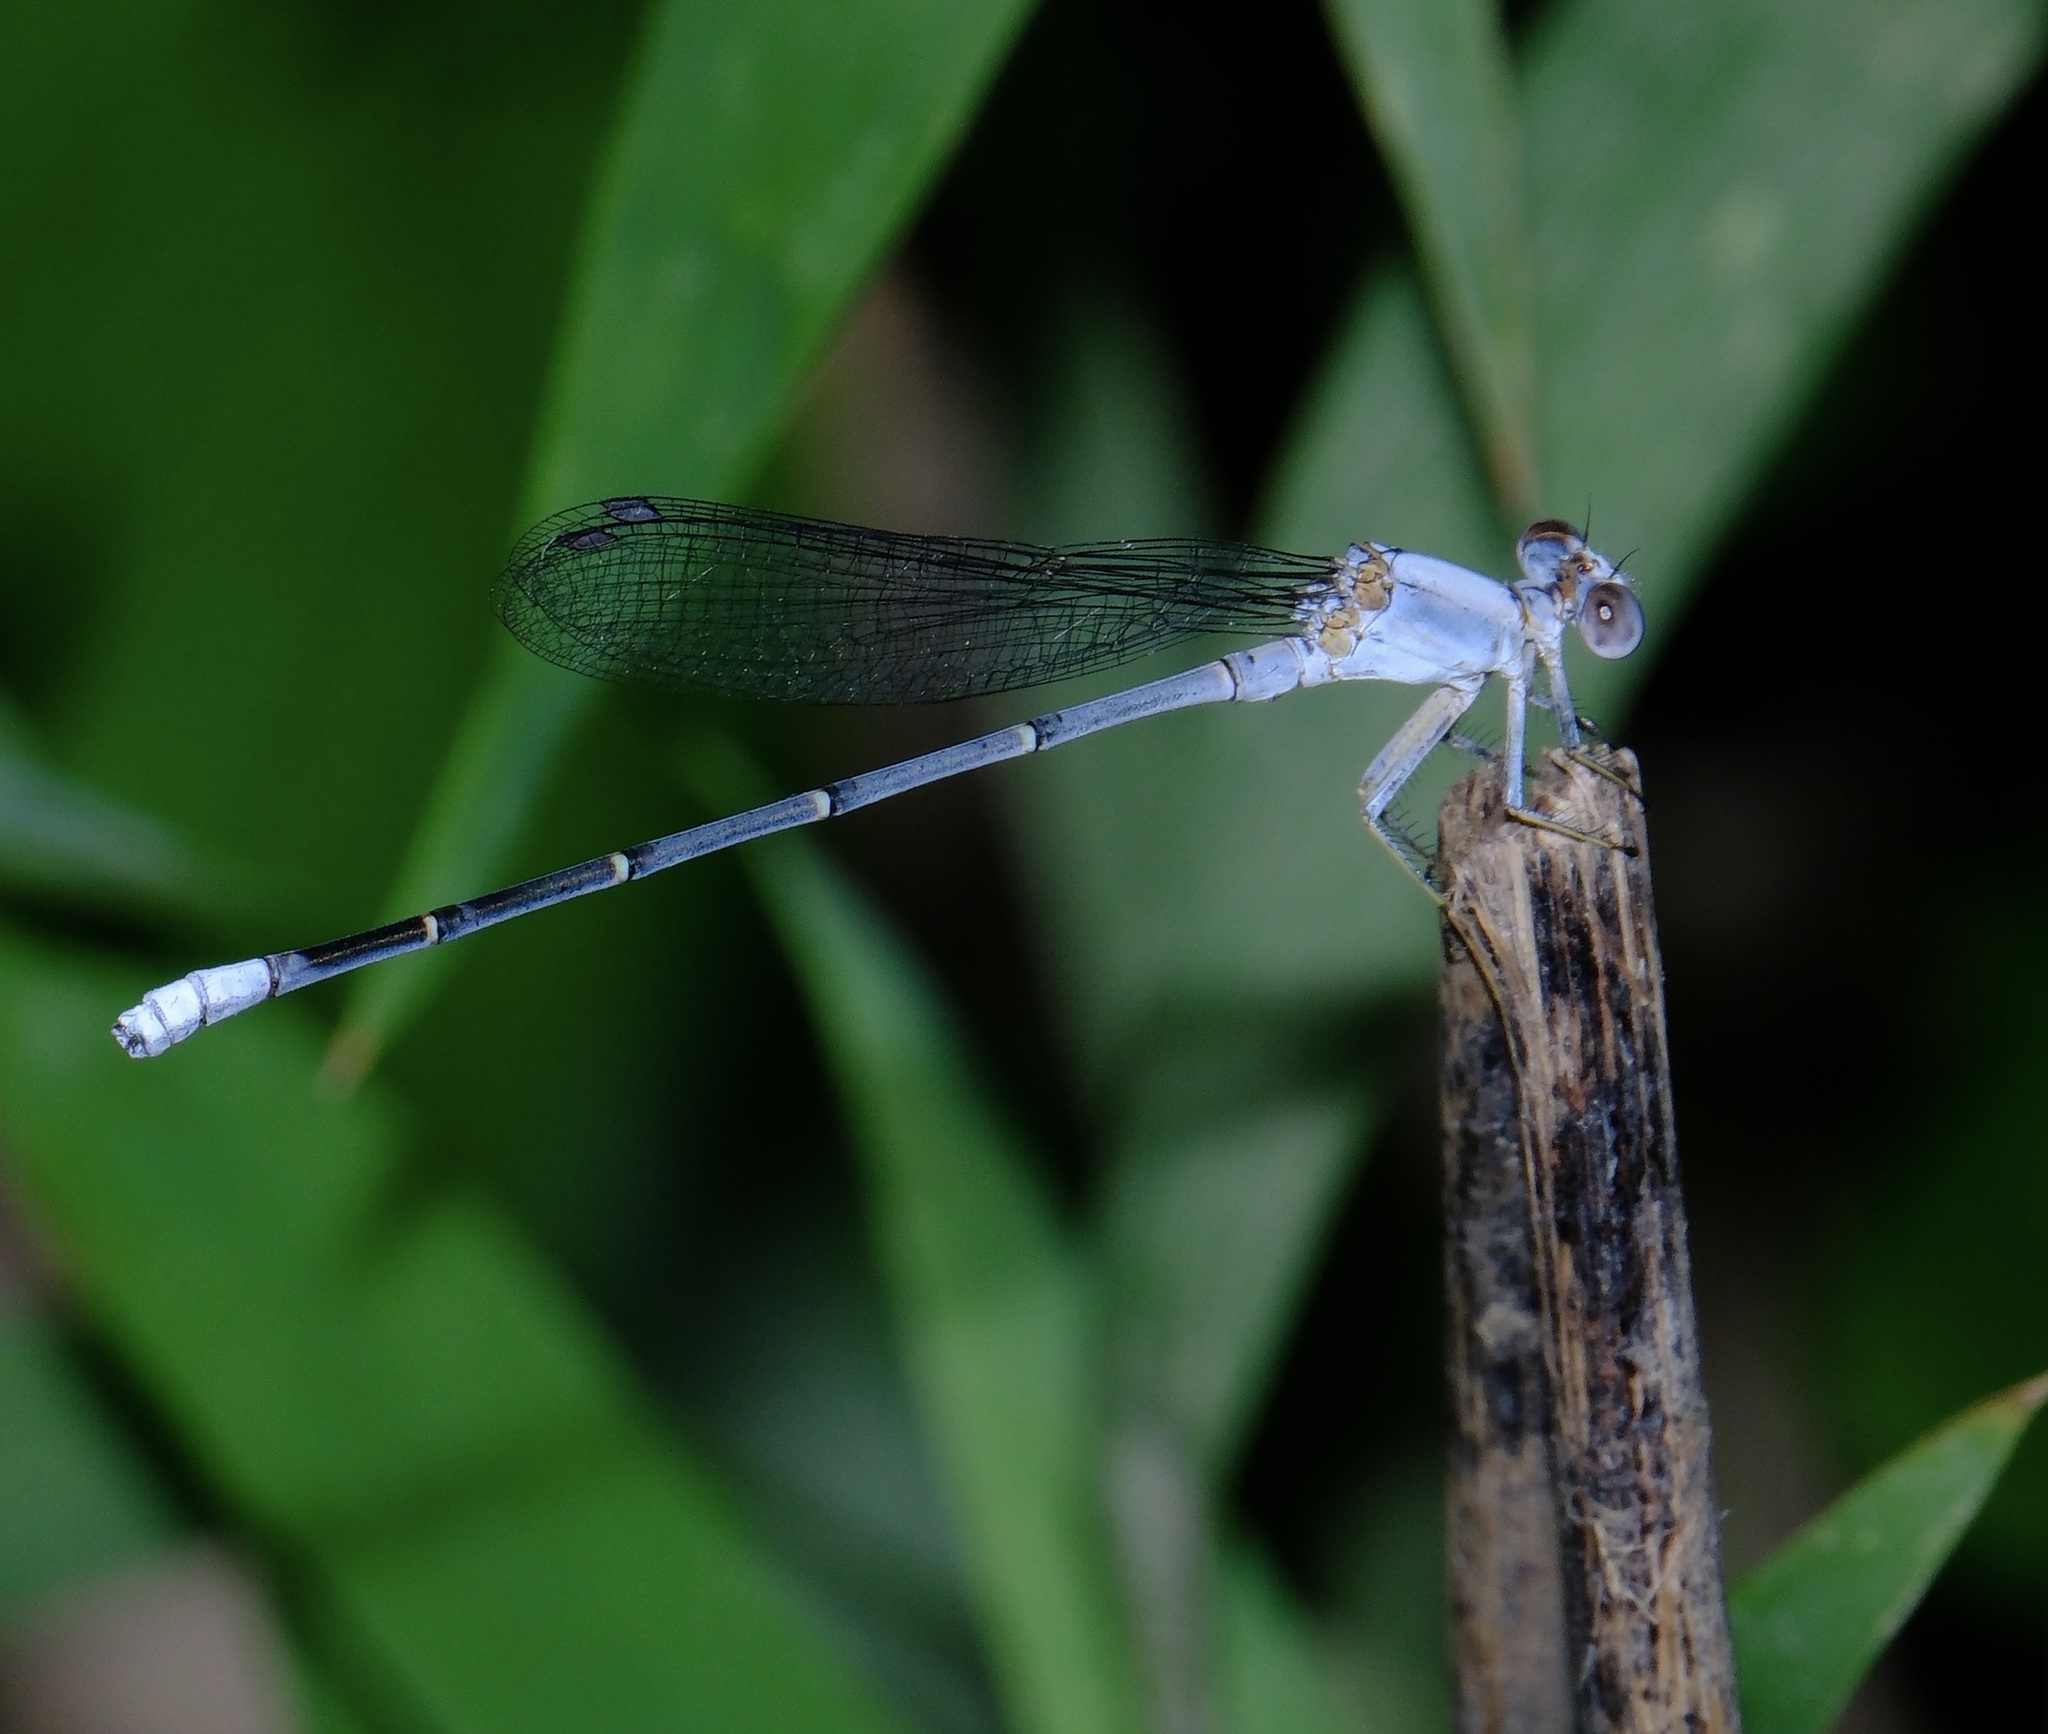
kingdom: Animalia
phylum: Arthropoda
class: Insecta
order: Odonata
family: Coenagrionidae
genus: Argia
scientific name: Argia moesta
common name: Powdered dancer
